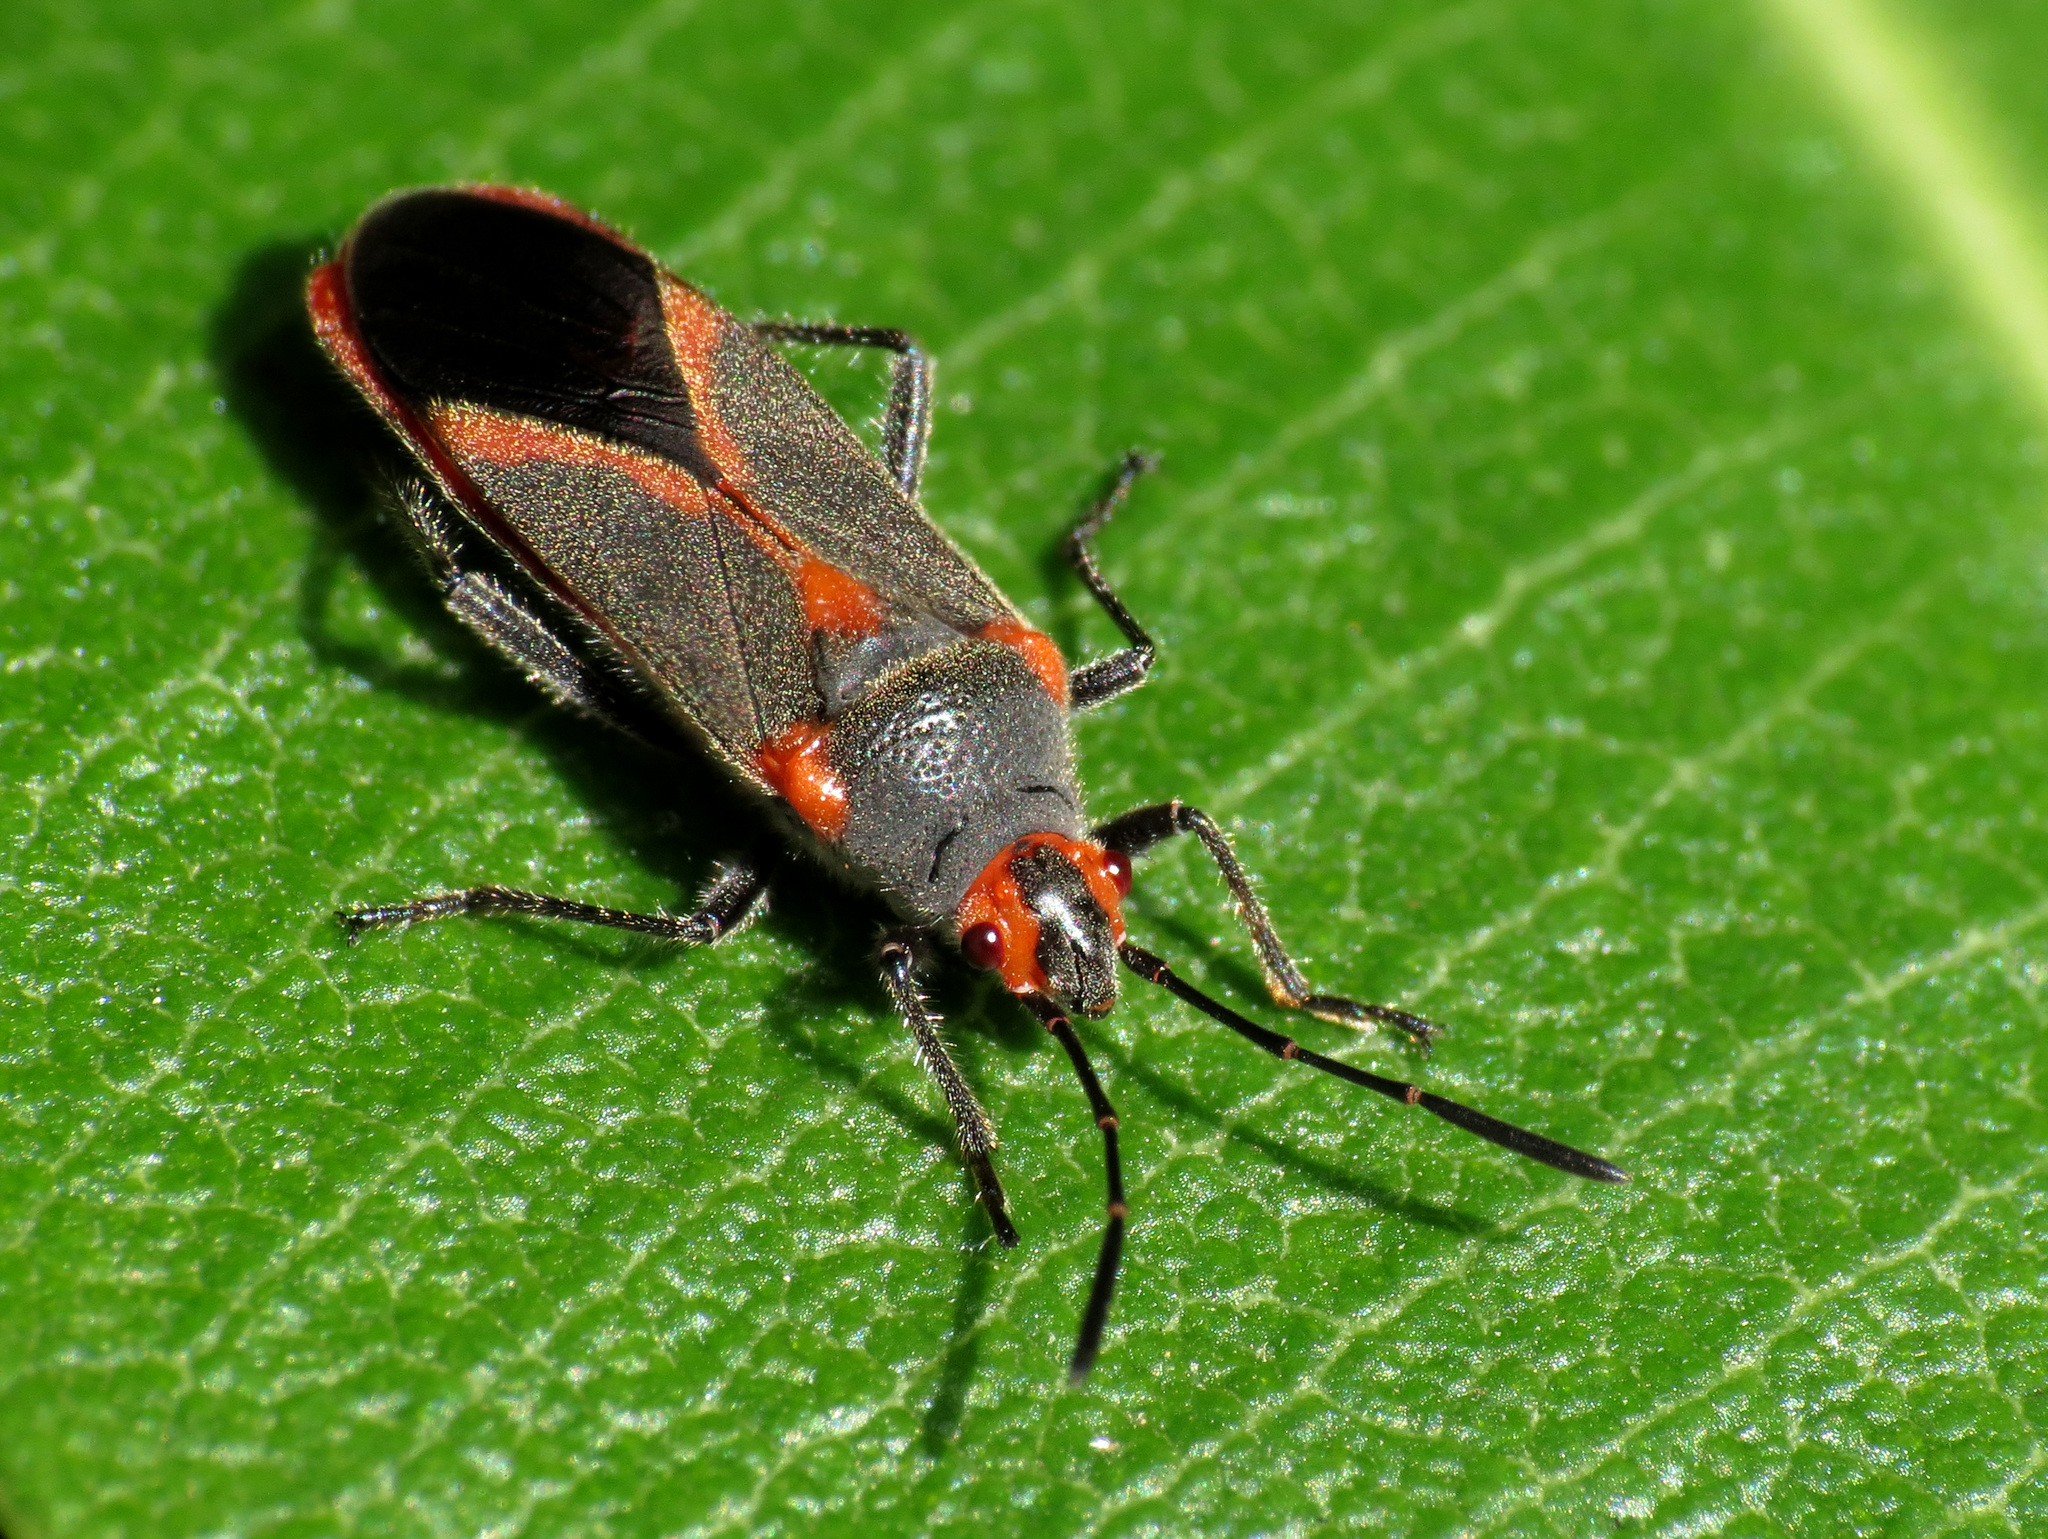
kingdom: Animalia
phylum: Arthropoda
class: Insecta
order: Hemiptera
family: Lygaeidae
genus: Caenocoris
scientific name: Caenocoris nerii
